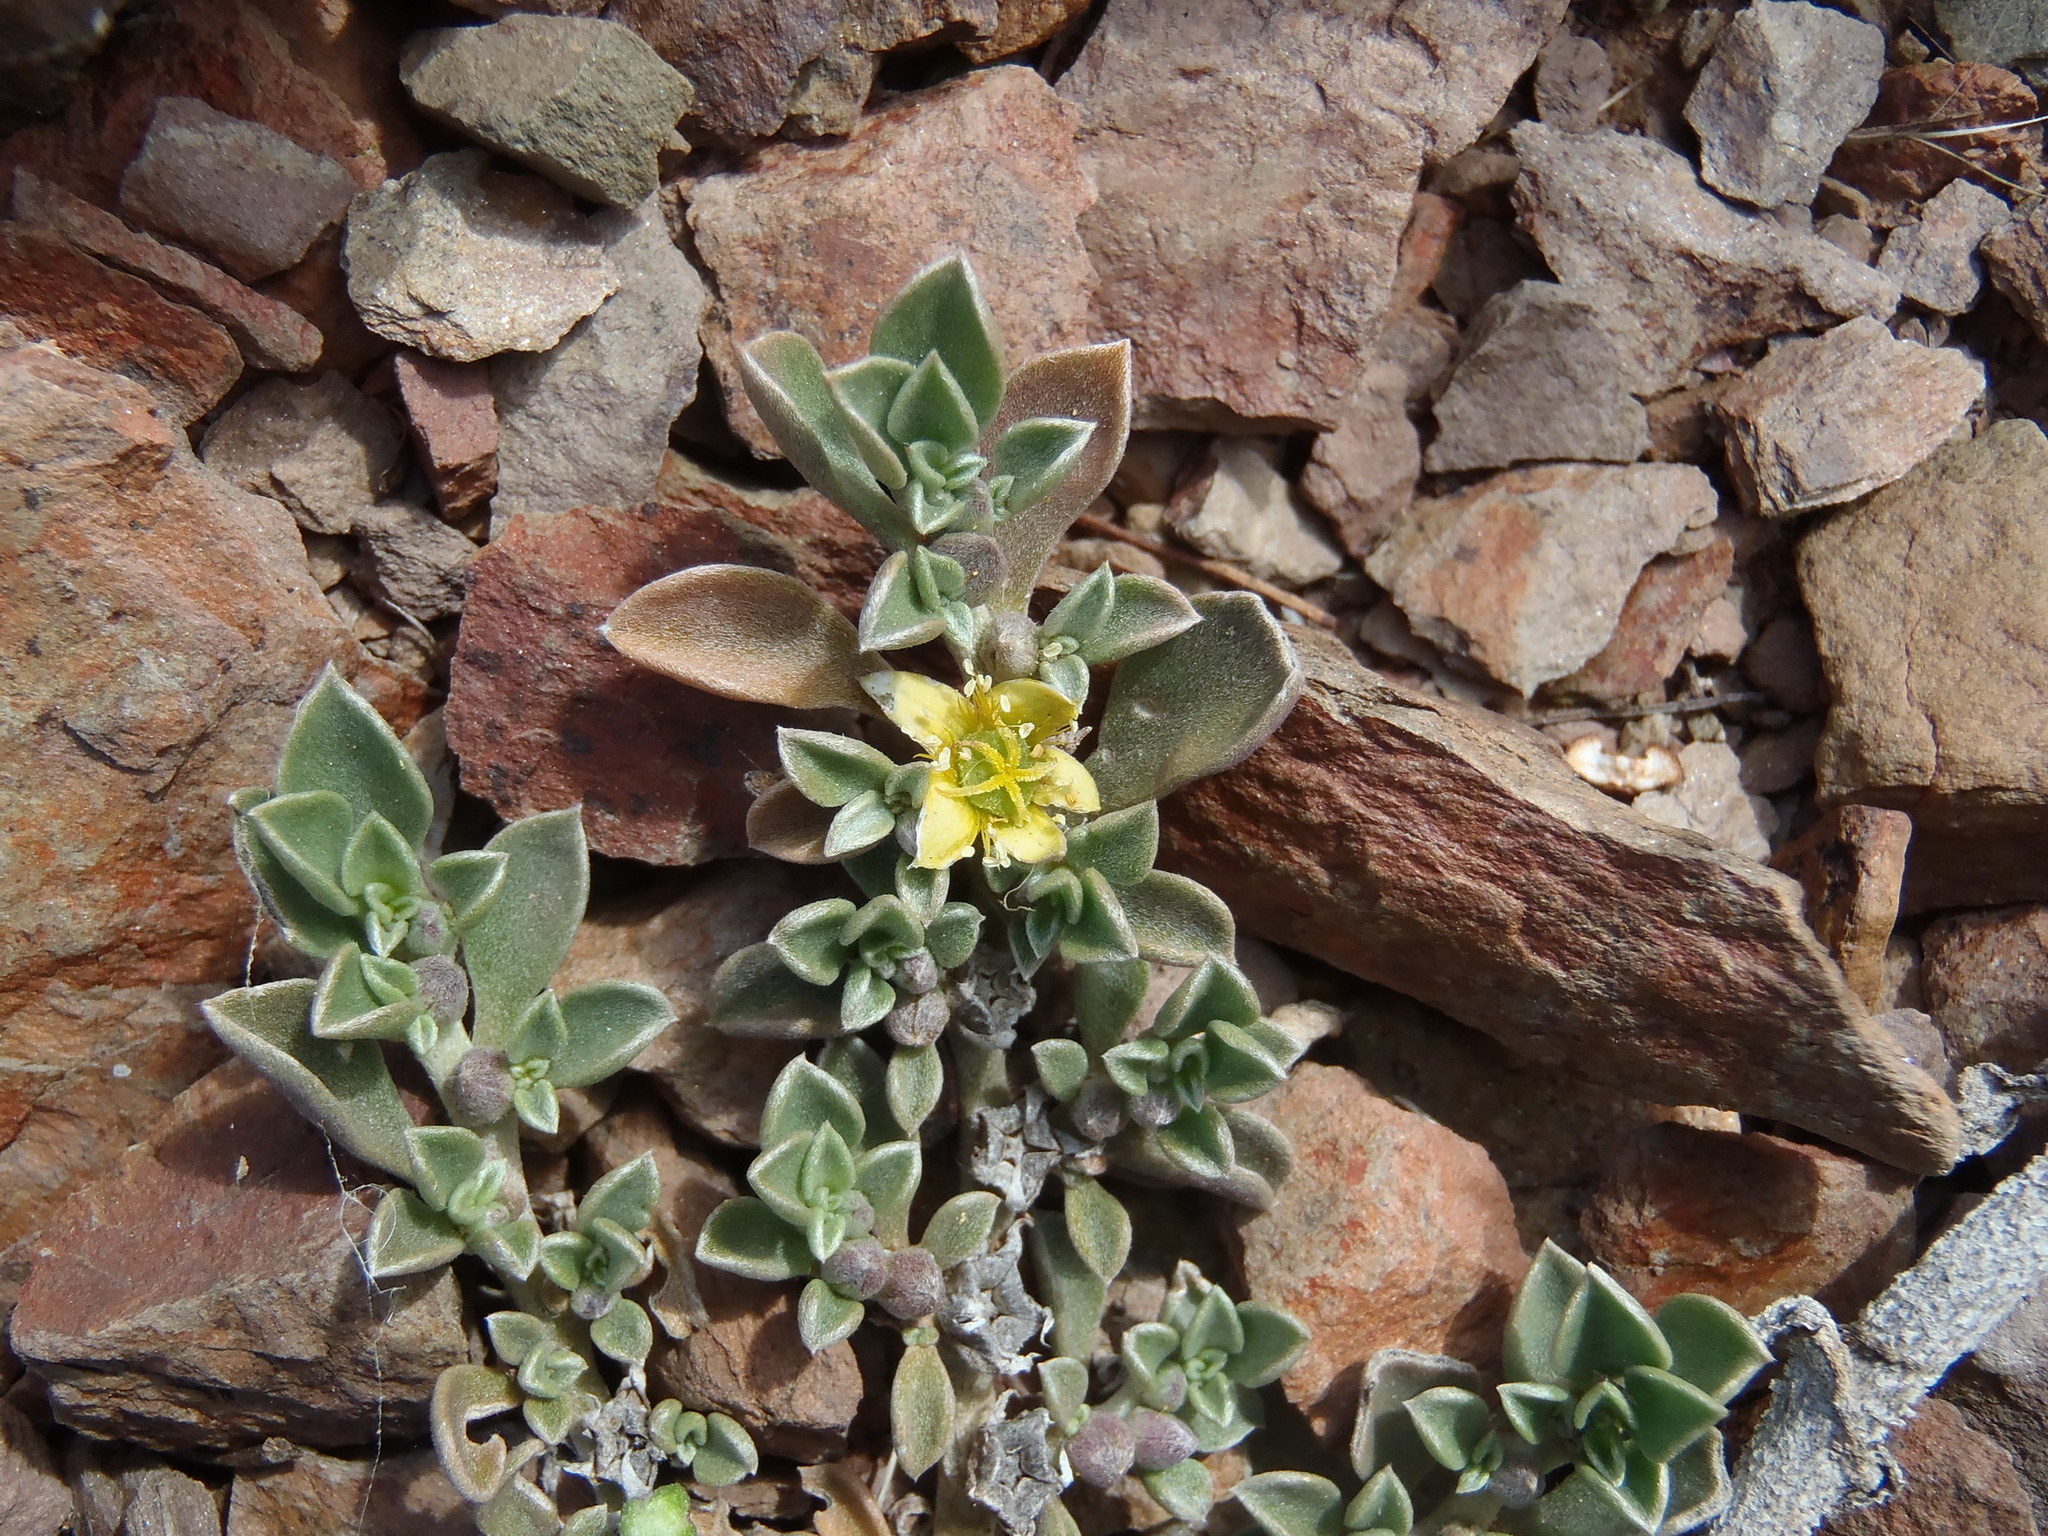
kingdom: Plantae
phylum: Tracheophyta
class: Magnoliopsida
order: Caryophyllales
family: Aizoaceae
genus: Aizoon
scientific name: Aizoon rigidum
